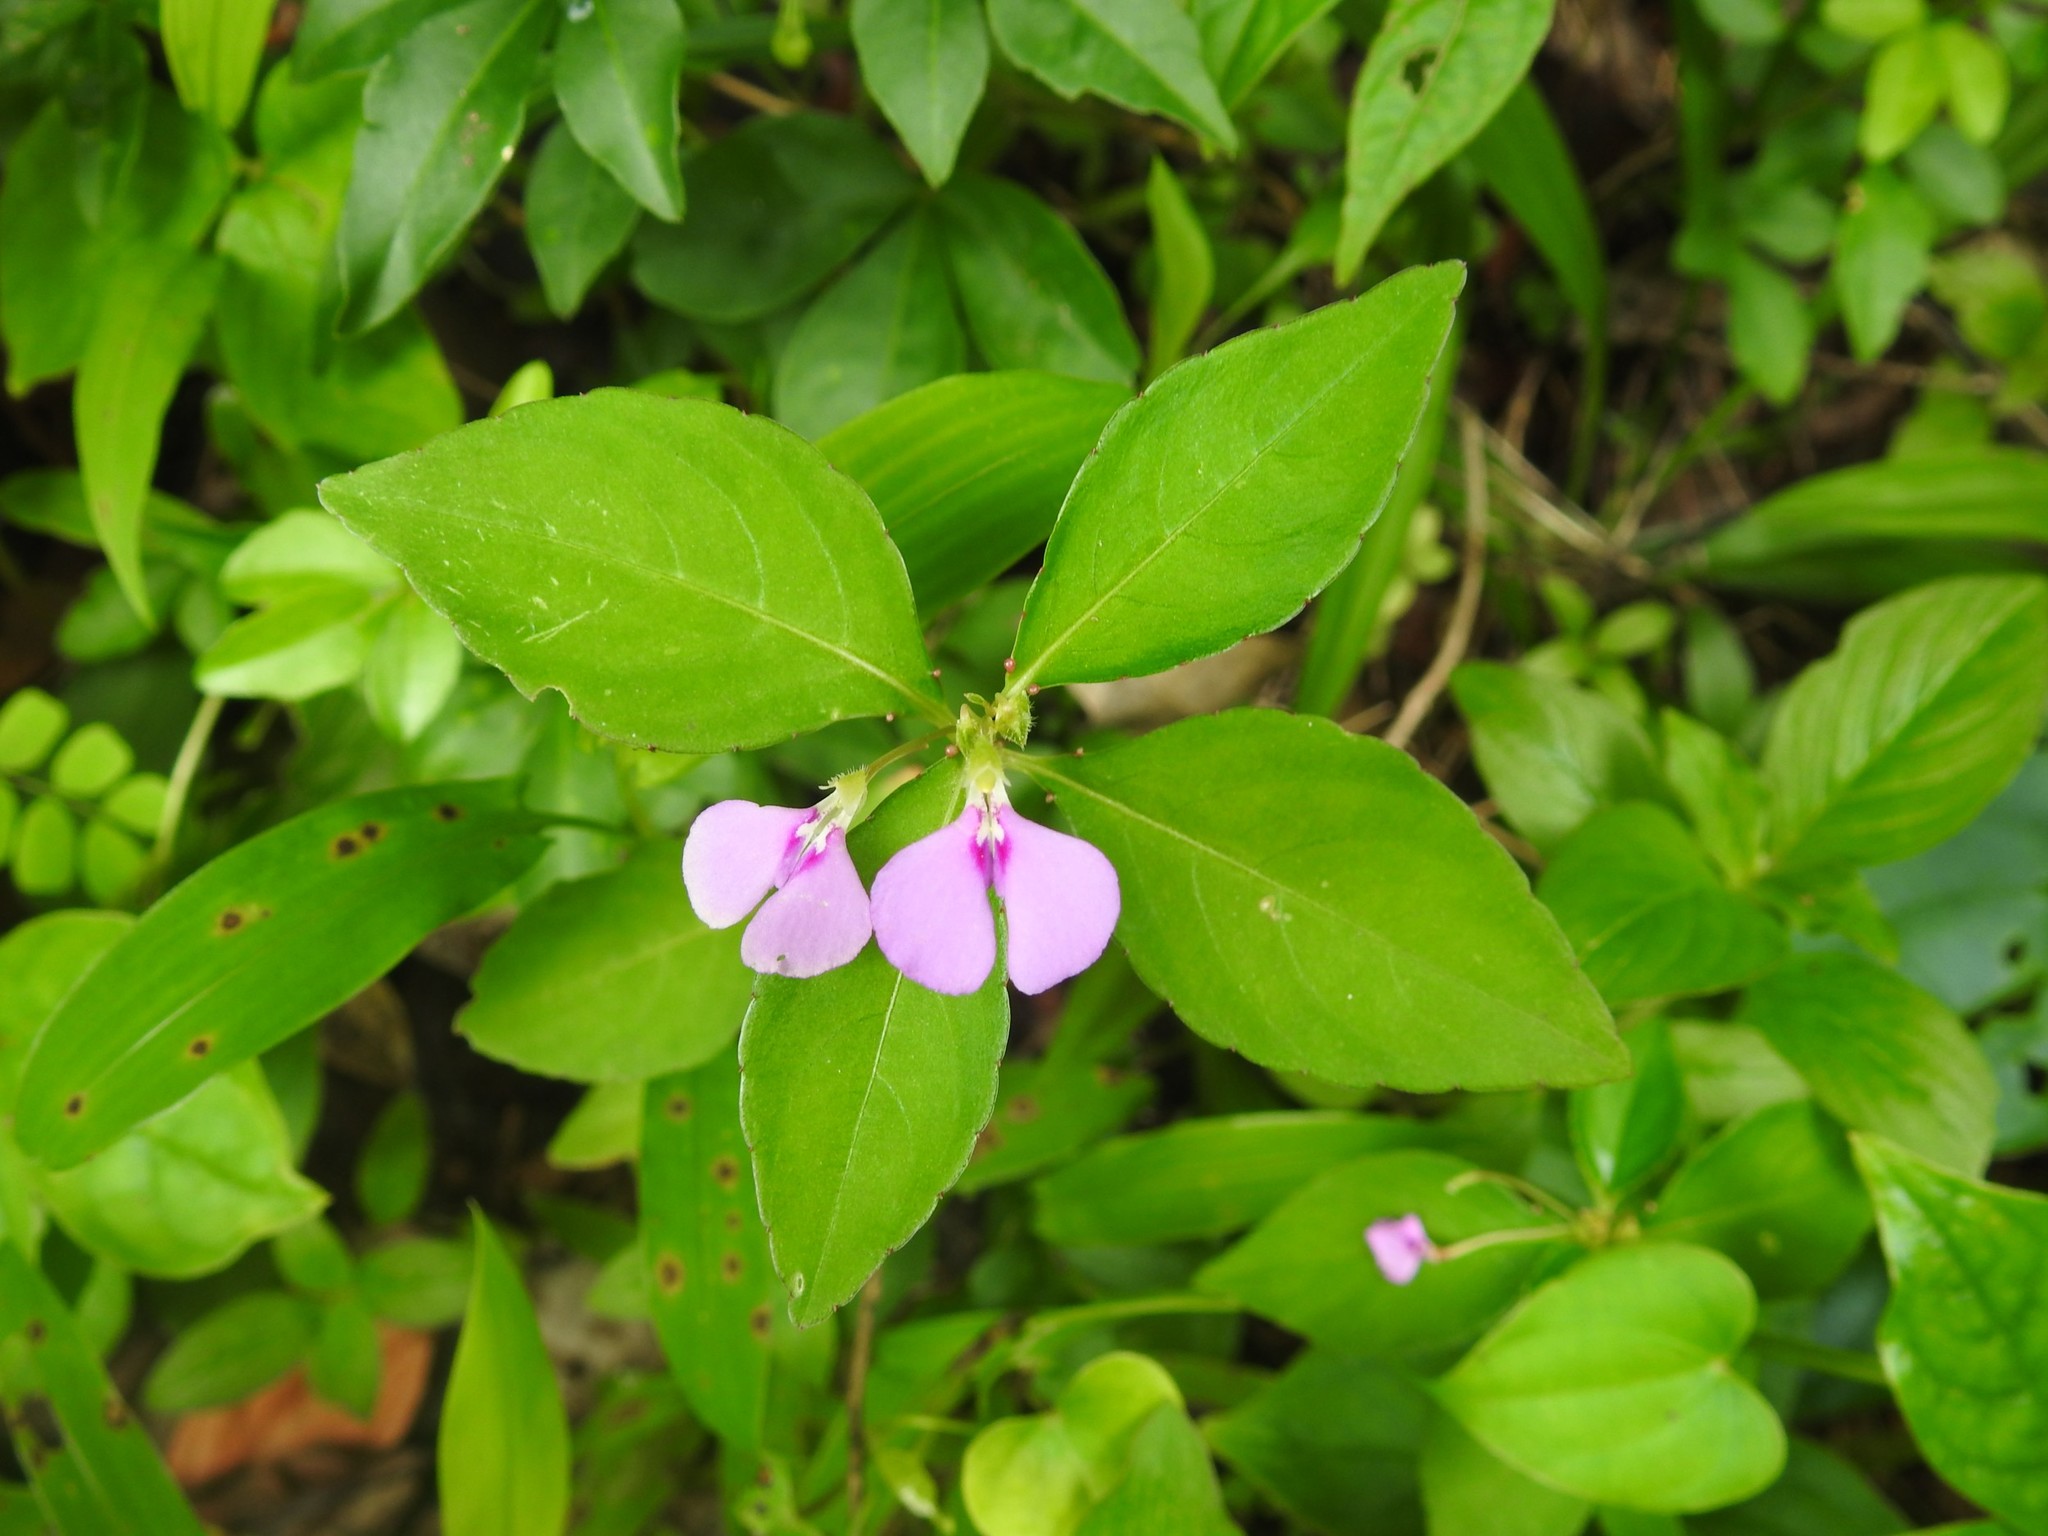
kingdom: Plantae
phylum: Tracheophyta
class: Magnoliopsida
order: Ericales
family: Balsaminaceae
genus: Impatiens
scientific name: Impatiens minor
